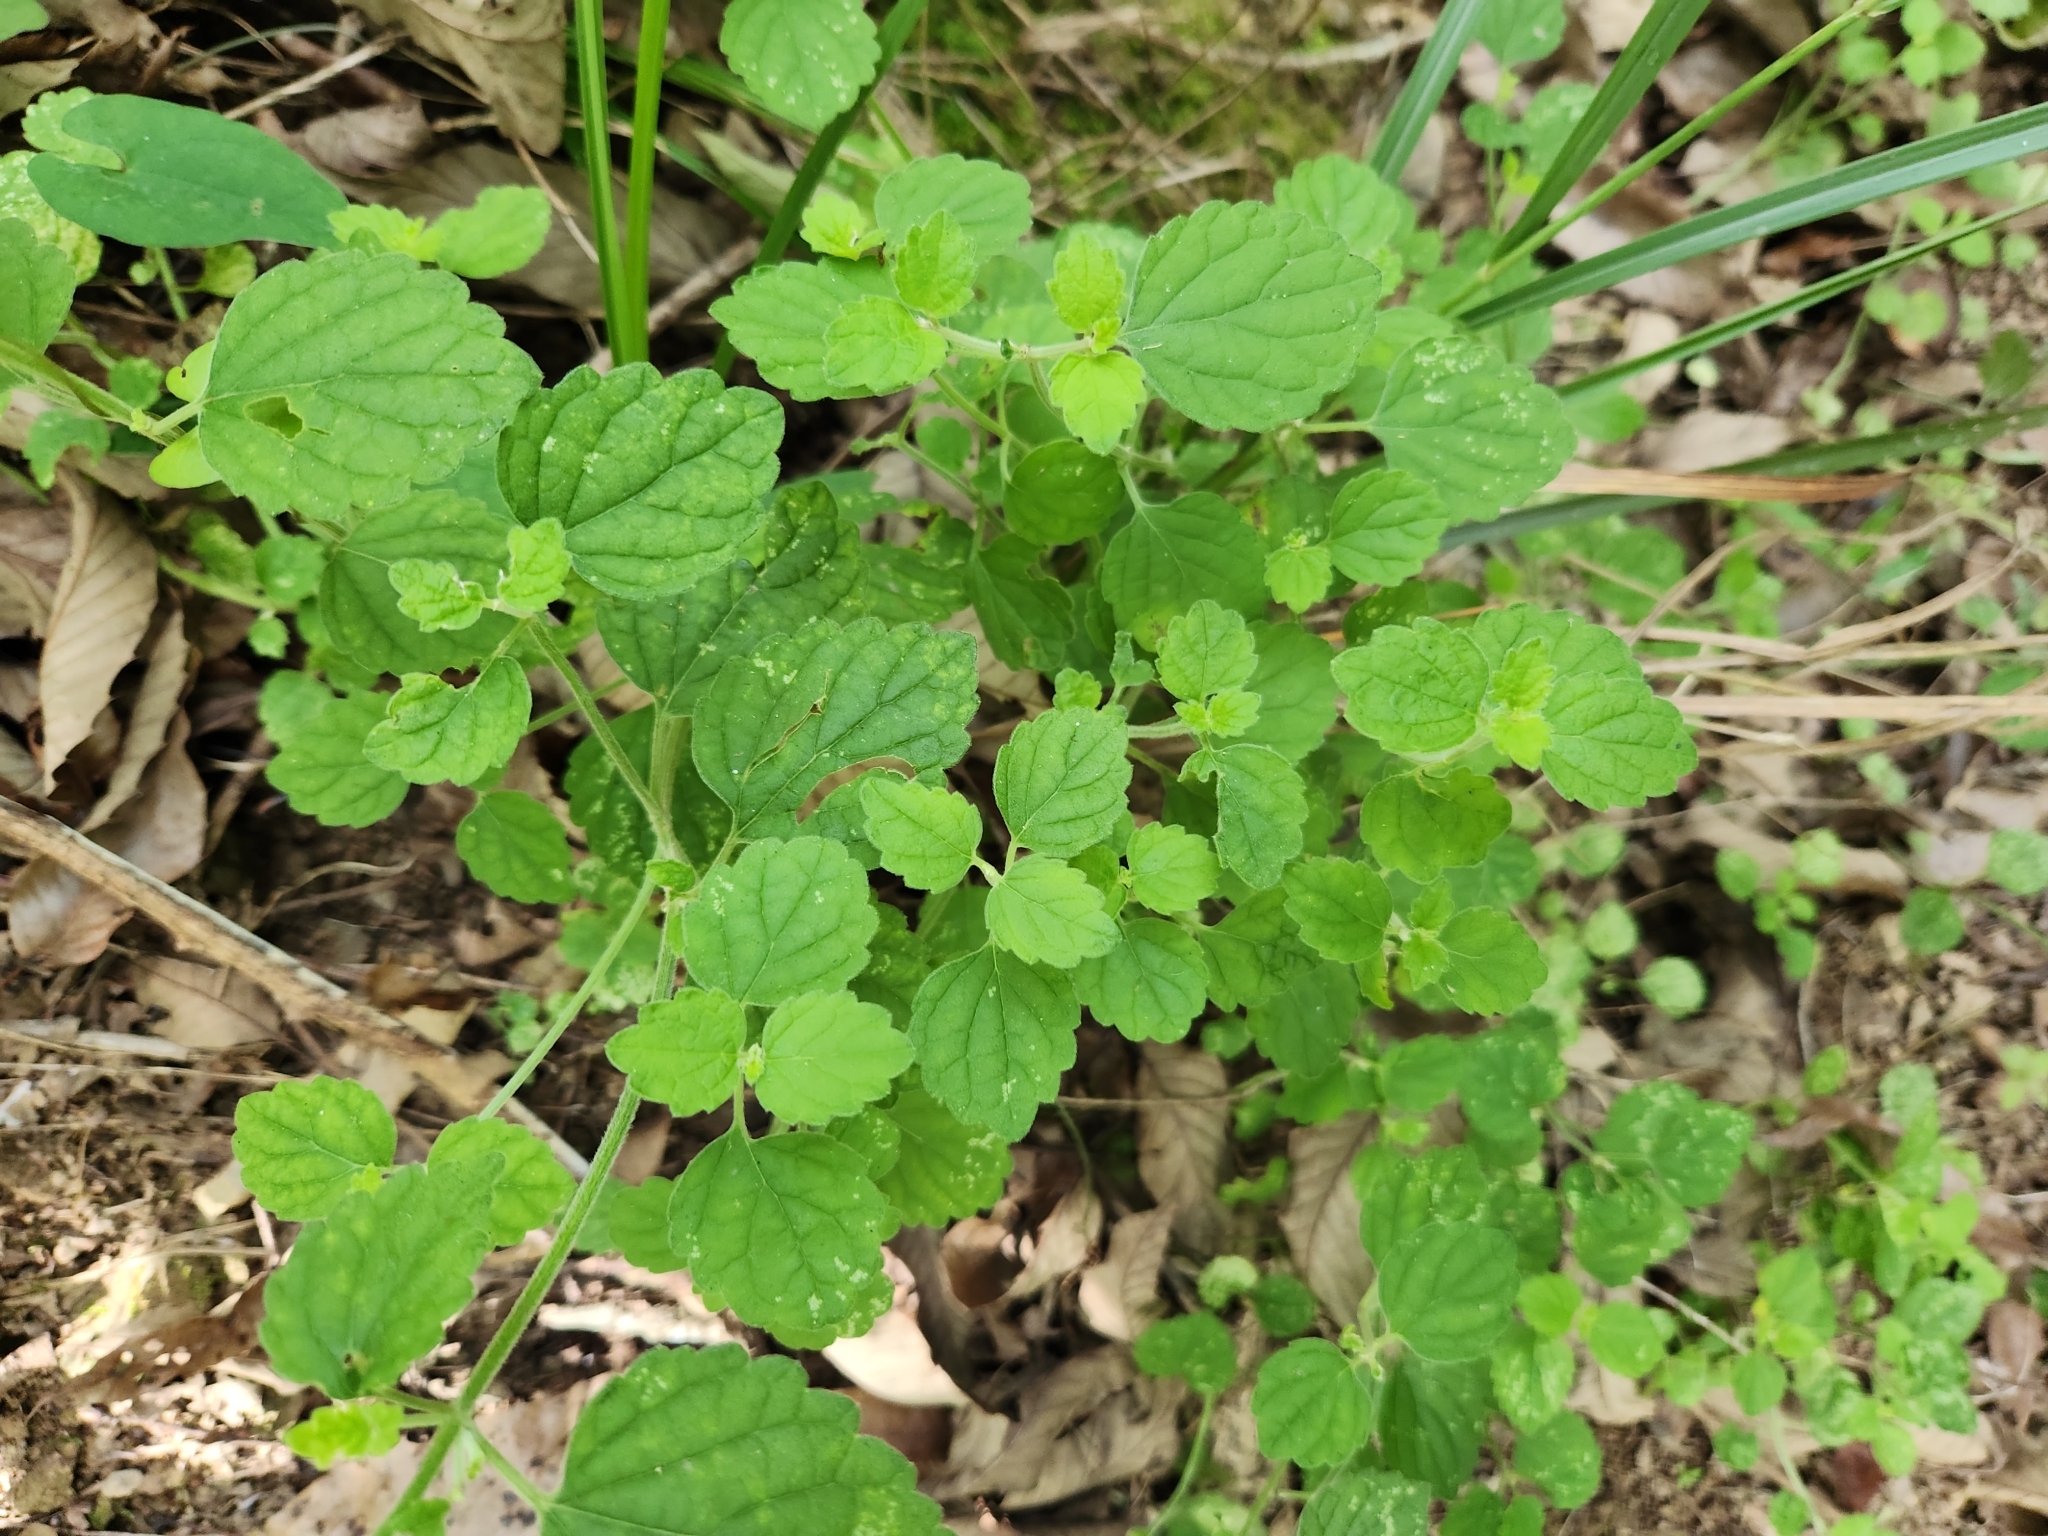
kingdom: Plantae
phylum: Tracheophyta
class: Magnoliopsida
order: Lamiales
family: Lamiaceae
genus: Leucas
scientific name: Leucas chinensis
